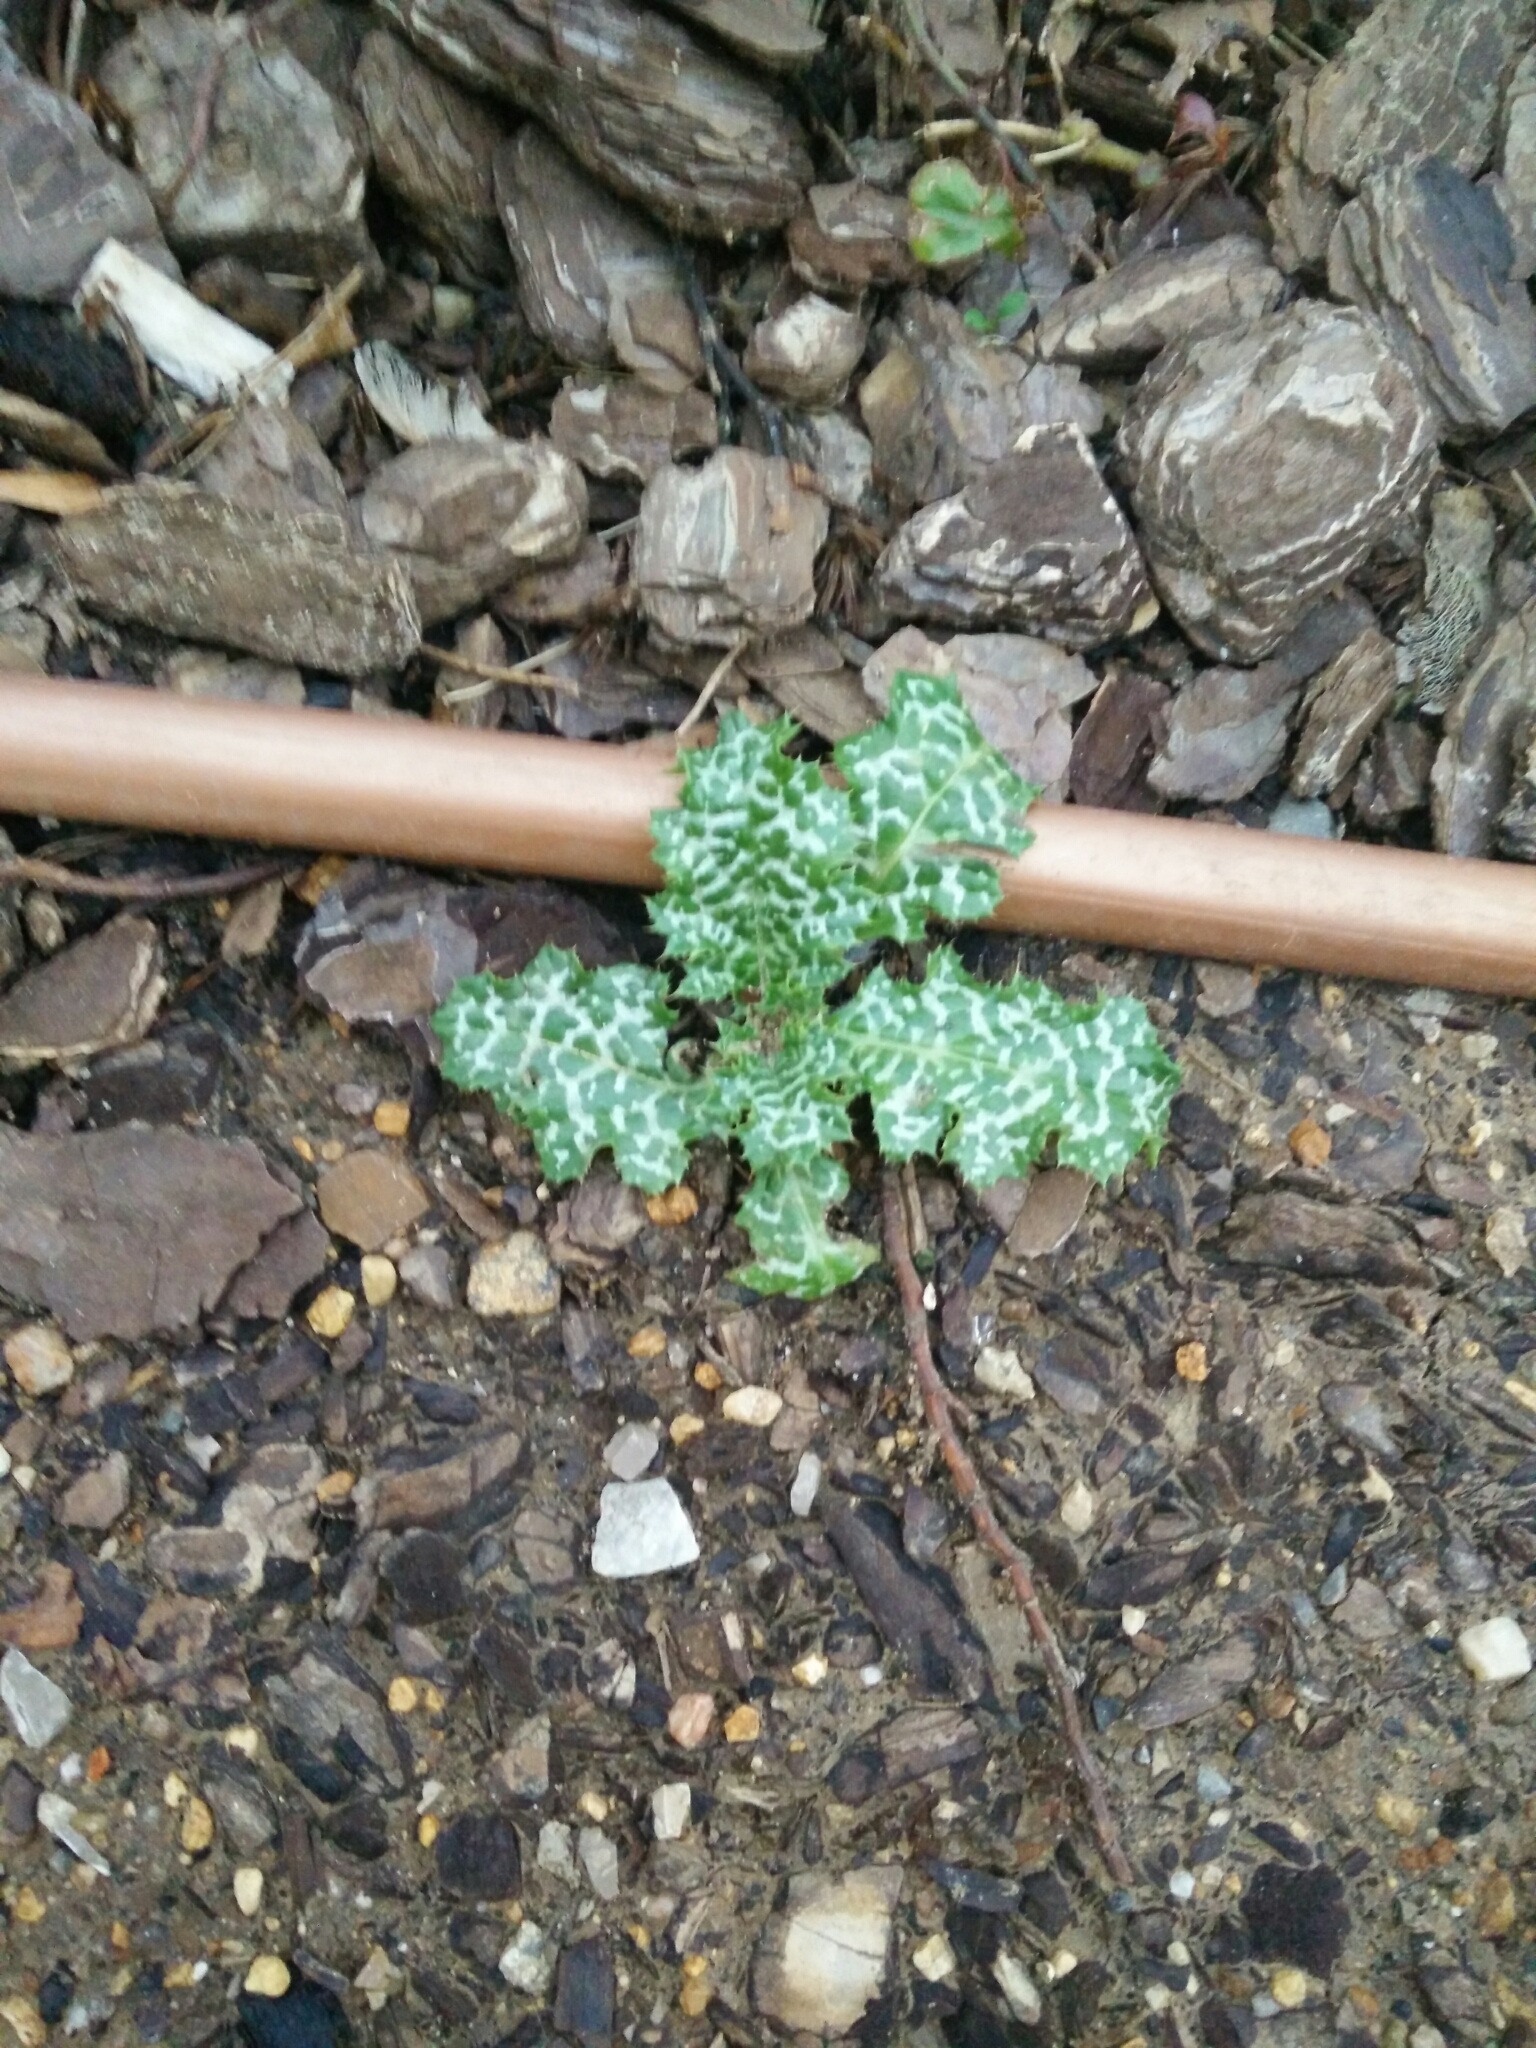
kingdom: Plantae
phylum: Tracheophyta
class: Magnoliopsida
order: Asterales
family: Asteraceae
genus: Silybum
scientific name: Silybum marianum
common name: Milk thistle
